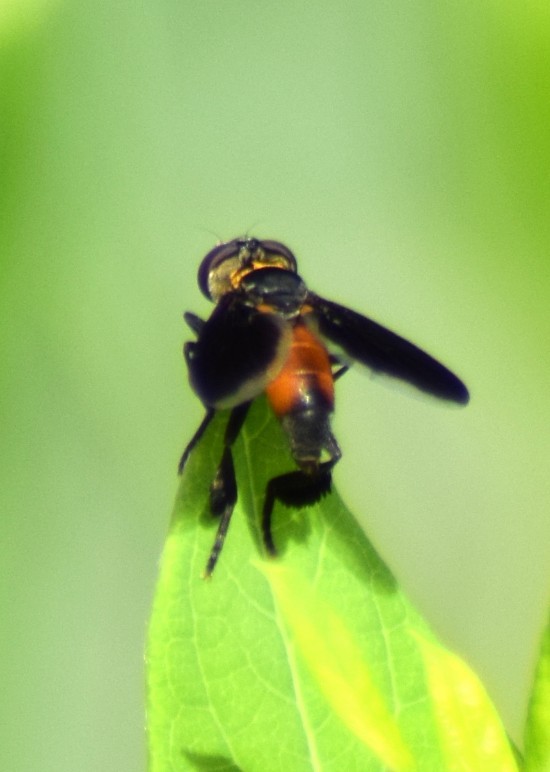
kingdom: Animalia
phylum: Arthropoda
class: Insecta
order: Diptera
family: Tachinidae
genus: Trichopoda
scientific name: Trichopoda pennipes
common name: Tachinid fly
